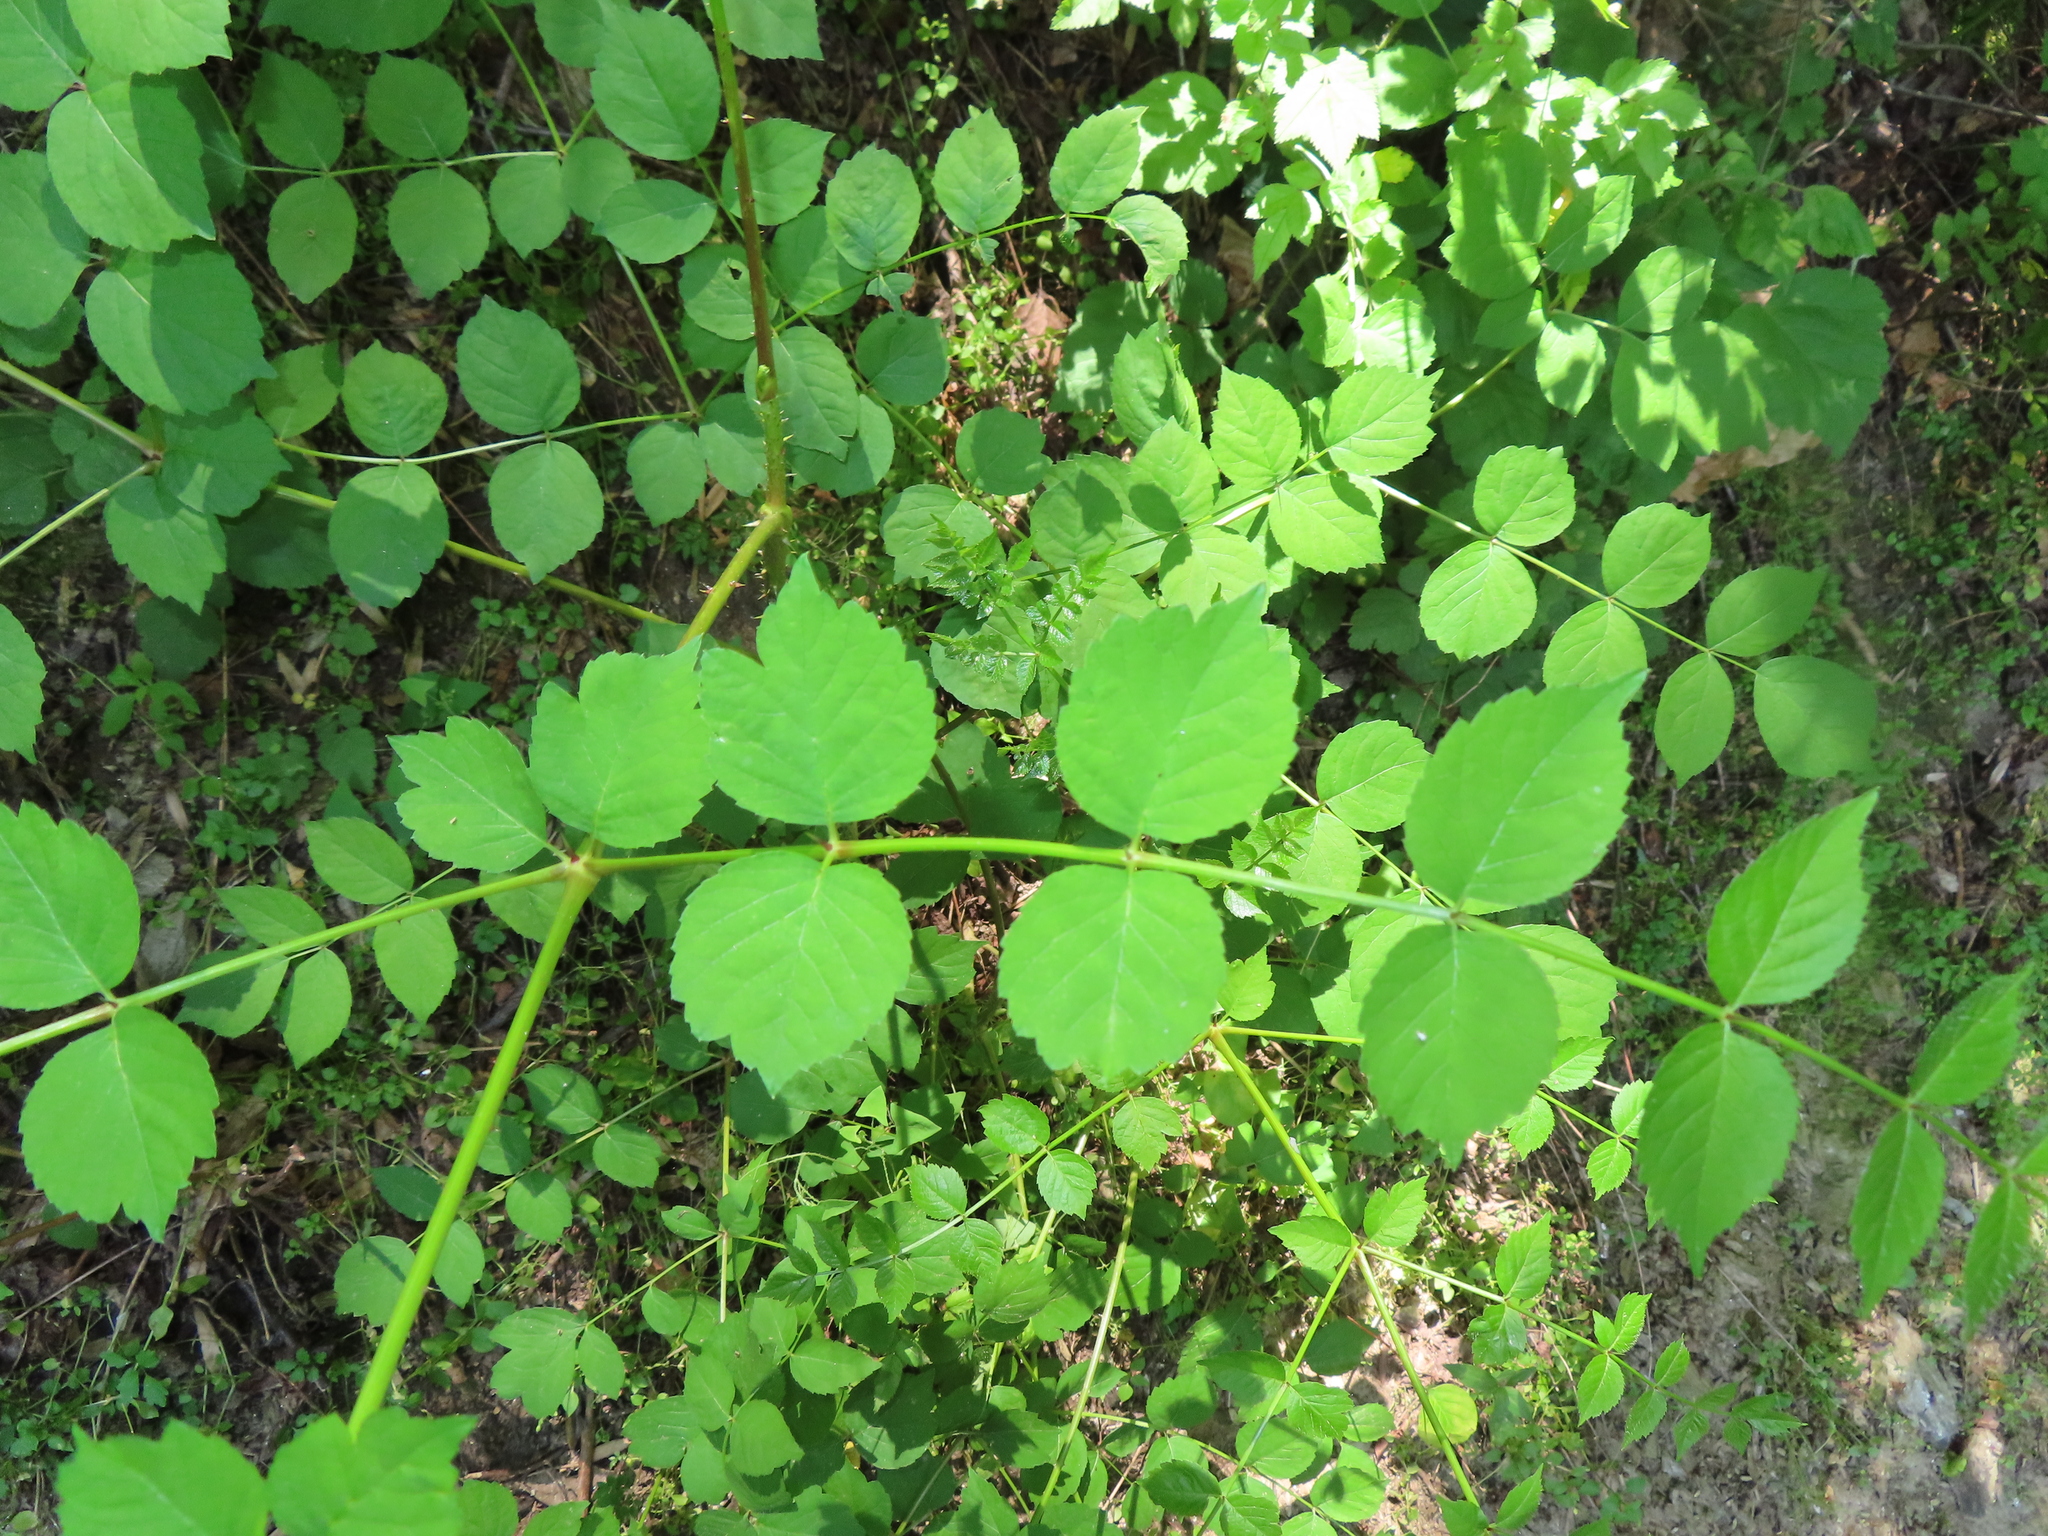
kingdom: Plantae
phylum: Tracheophyta
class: Magnoliopsida
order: Apiales
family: Araliaceae
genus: Aralia
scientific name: Aralia elata
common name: Japanese angelica-tree
